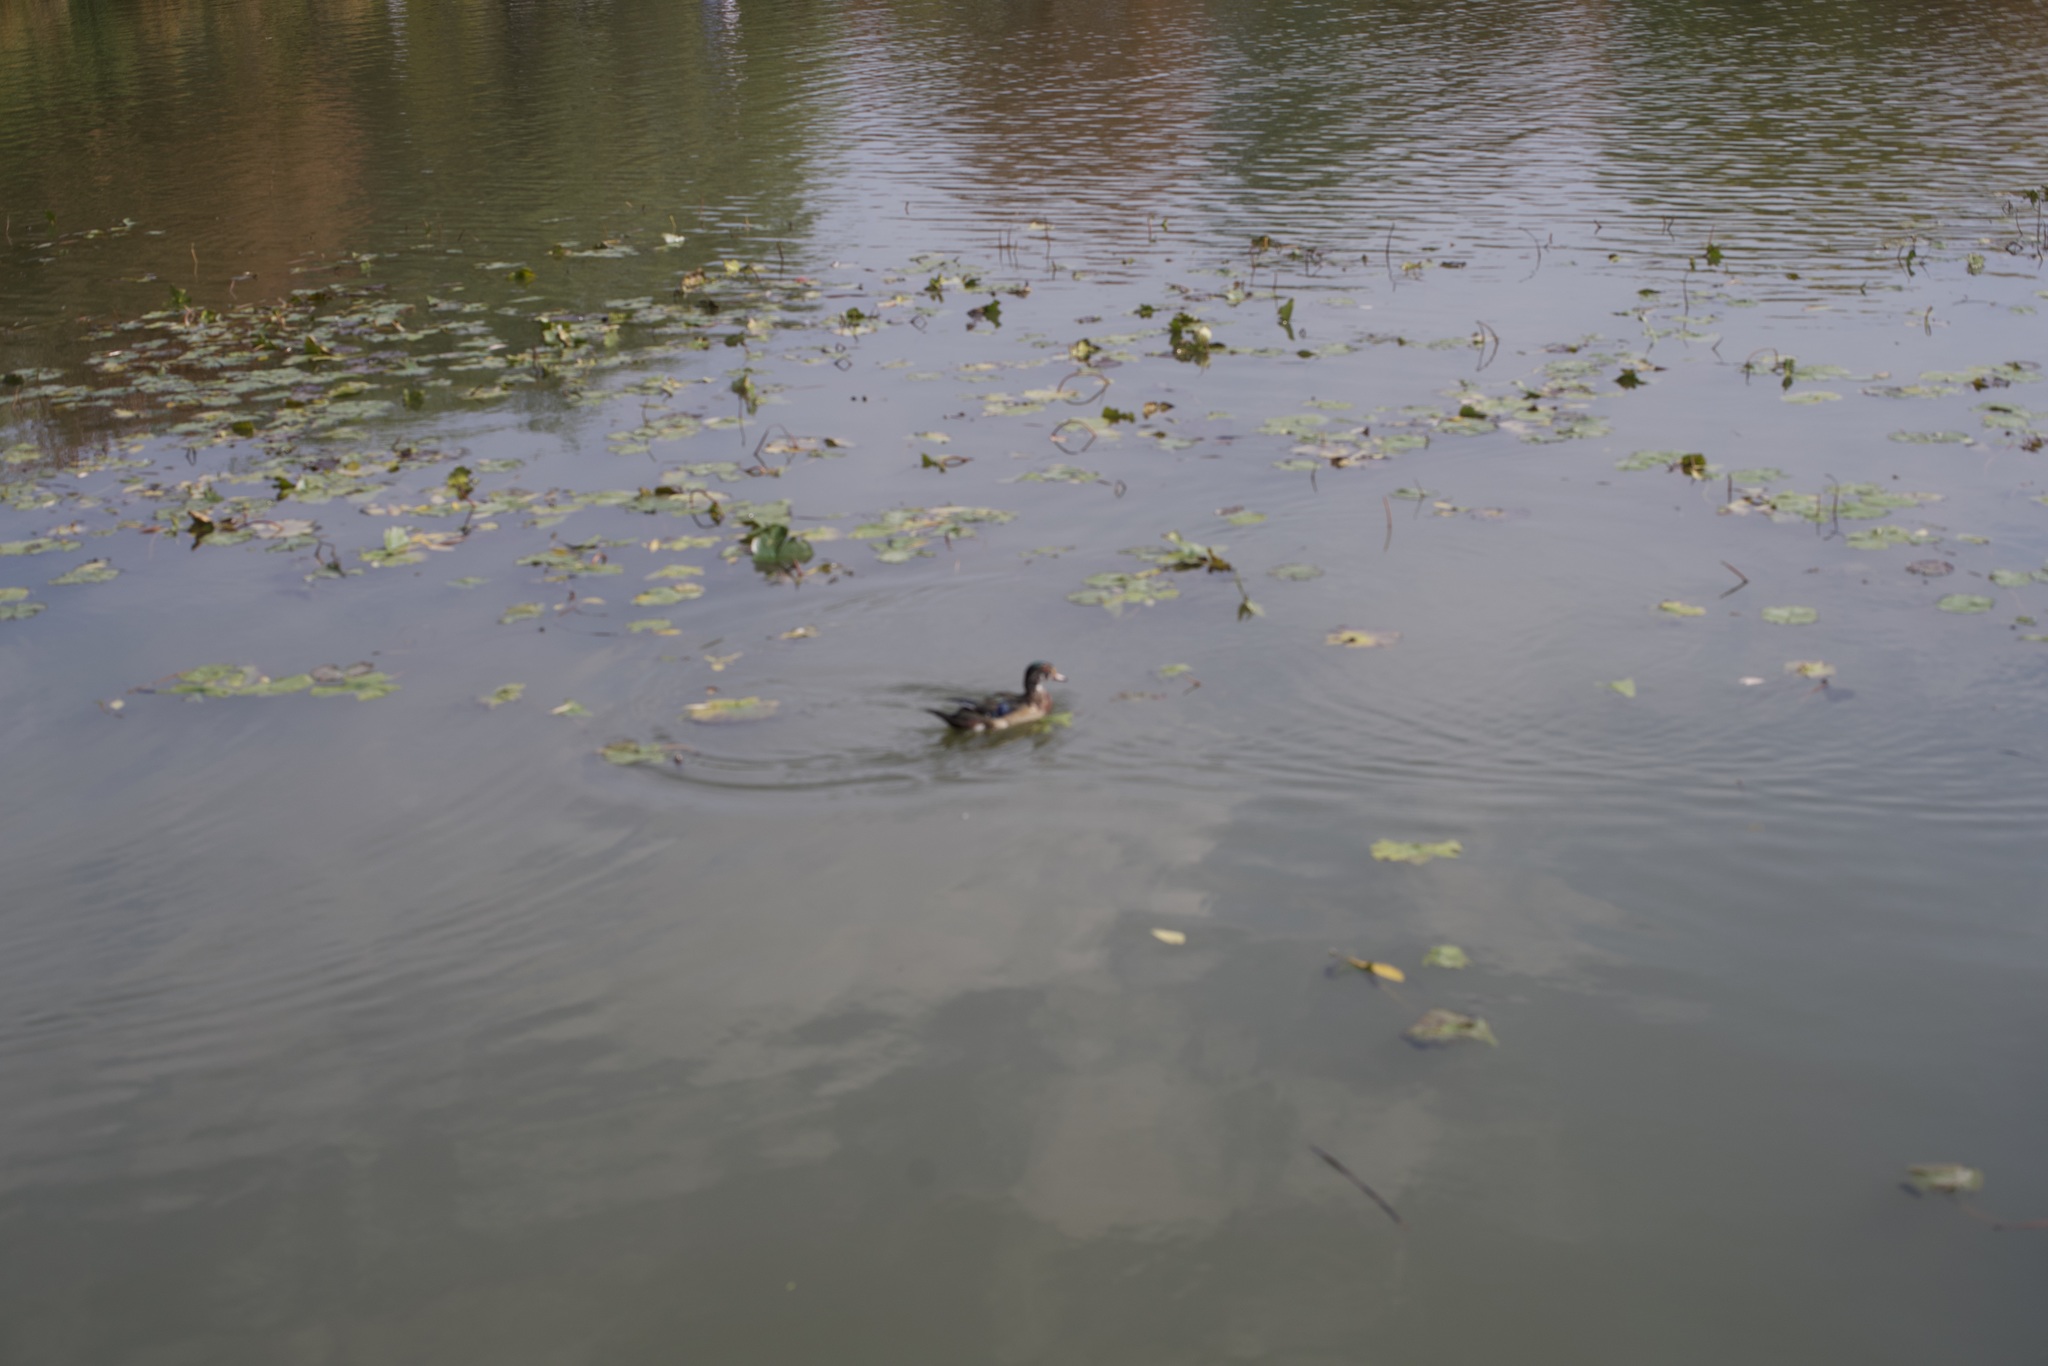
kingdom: Animalia
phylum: Chordata
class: Aves
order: Anseriformes
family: Anatidae
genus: Aix
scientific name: Aix sponsa
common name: Wood duck
